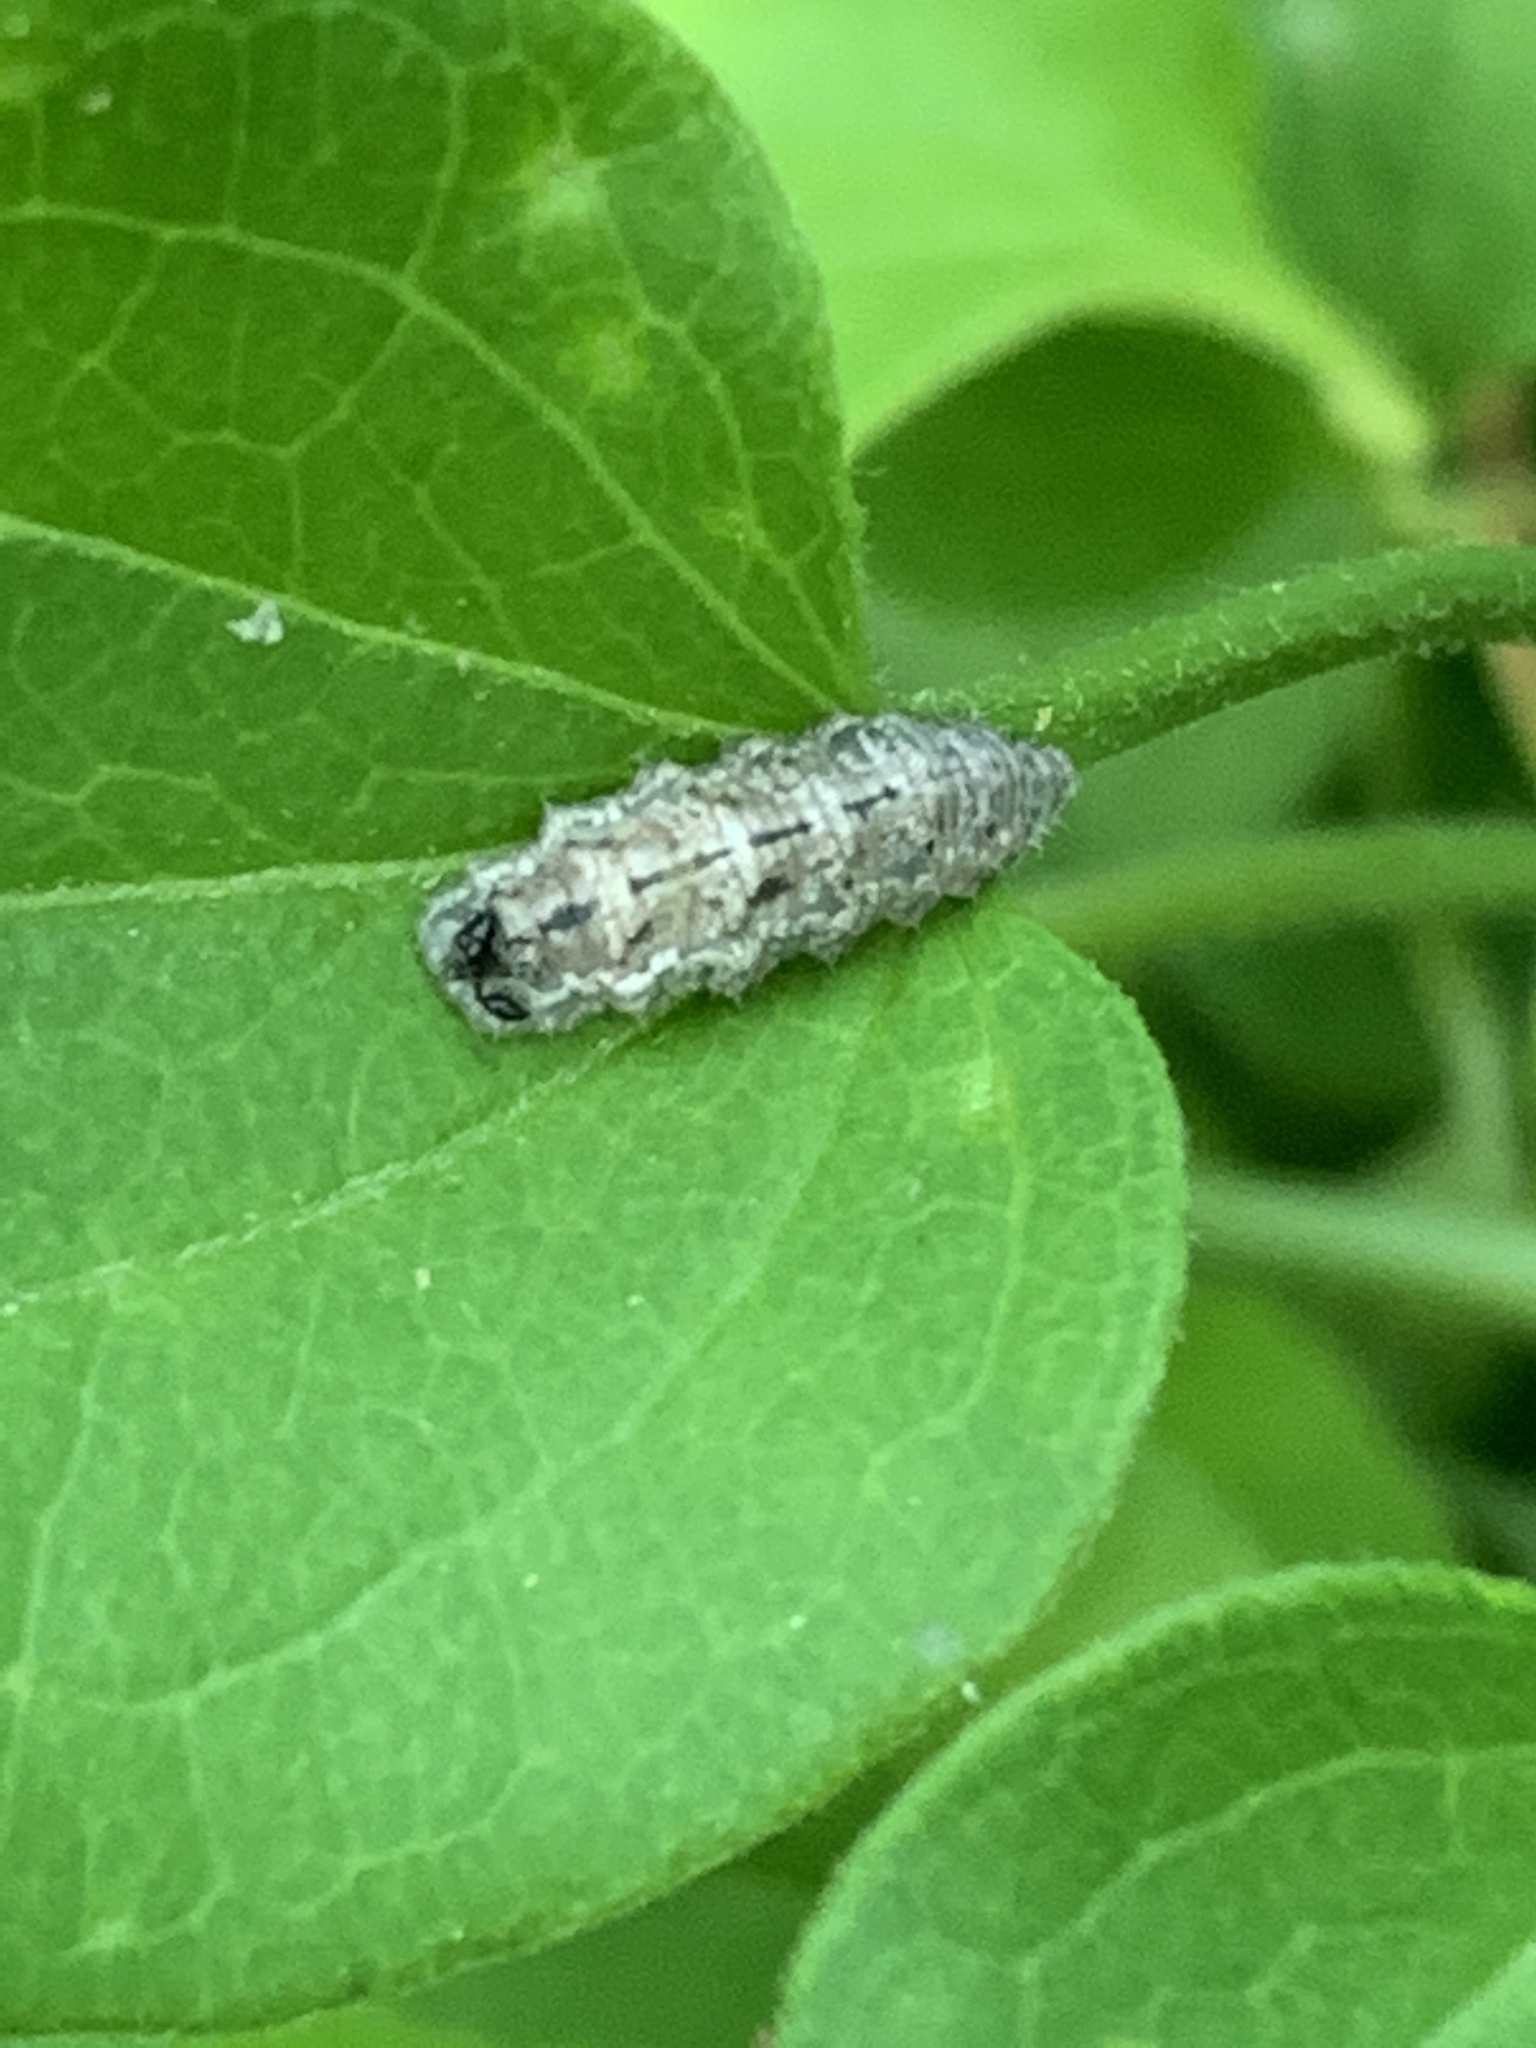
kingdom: Animalia
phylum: Arthropoda
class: Insecta
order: Diptera
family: Syrphidae
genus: Eupeodes
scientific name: Eupeodes americanus
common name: Long-tailed aphideater
